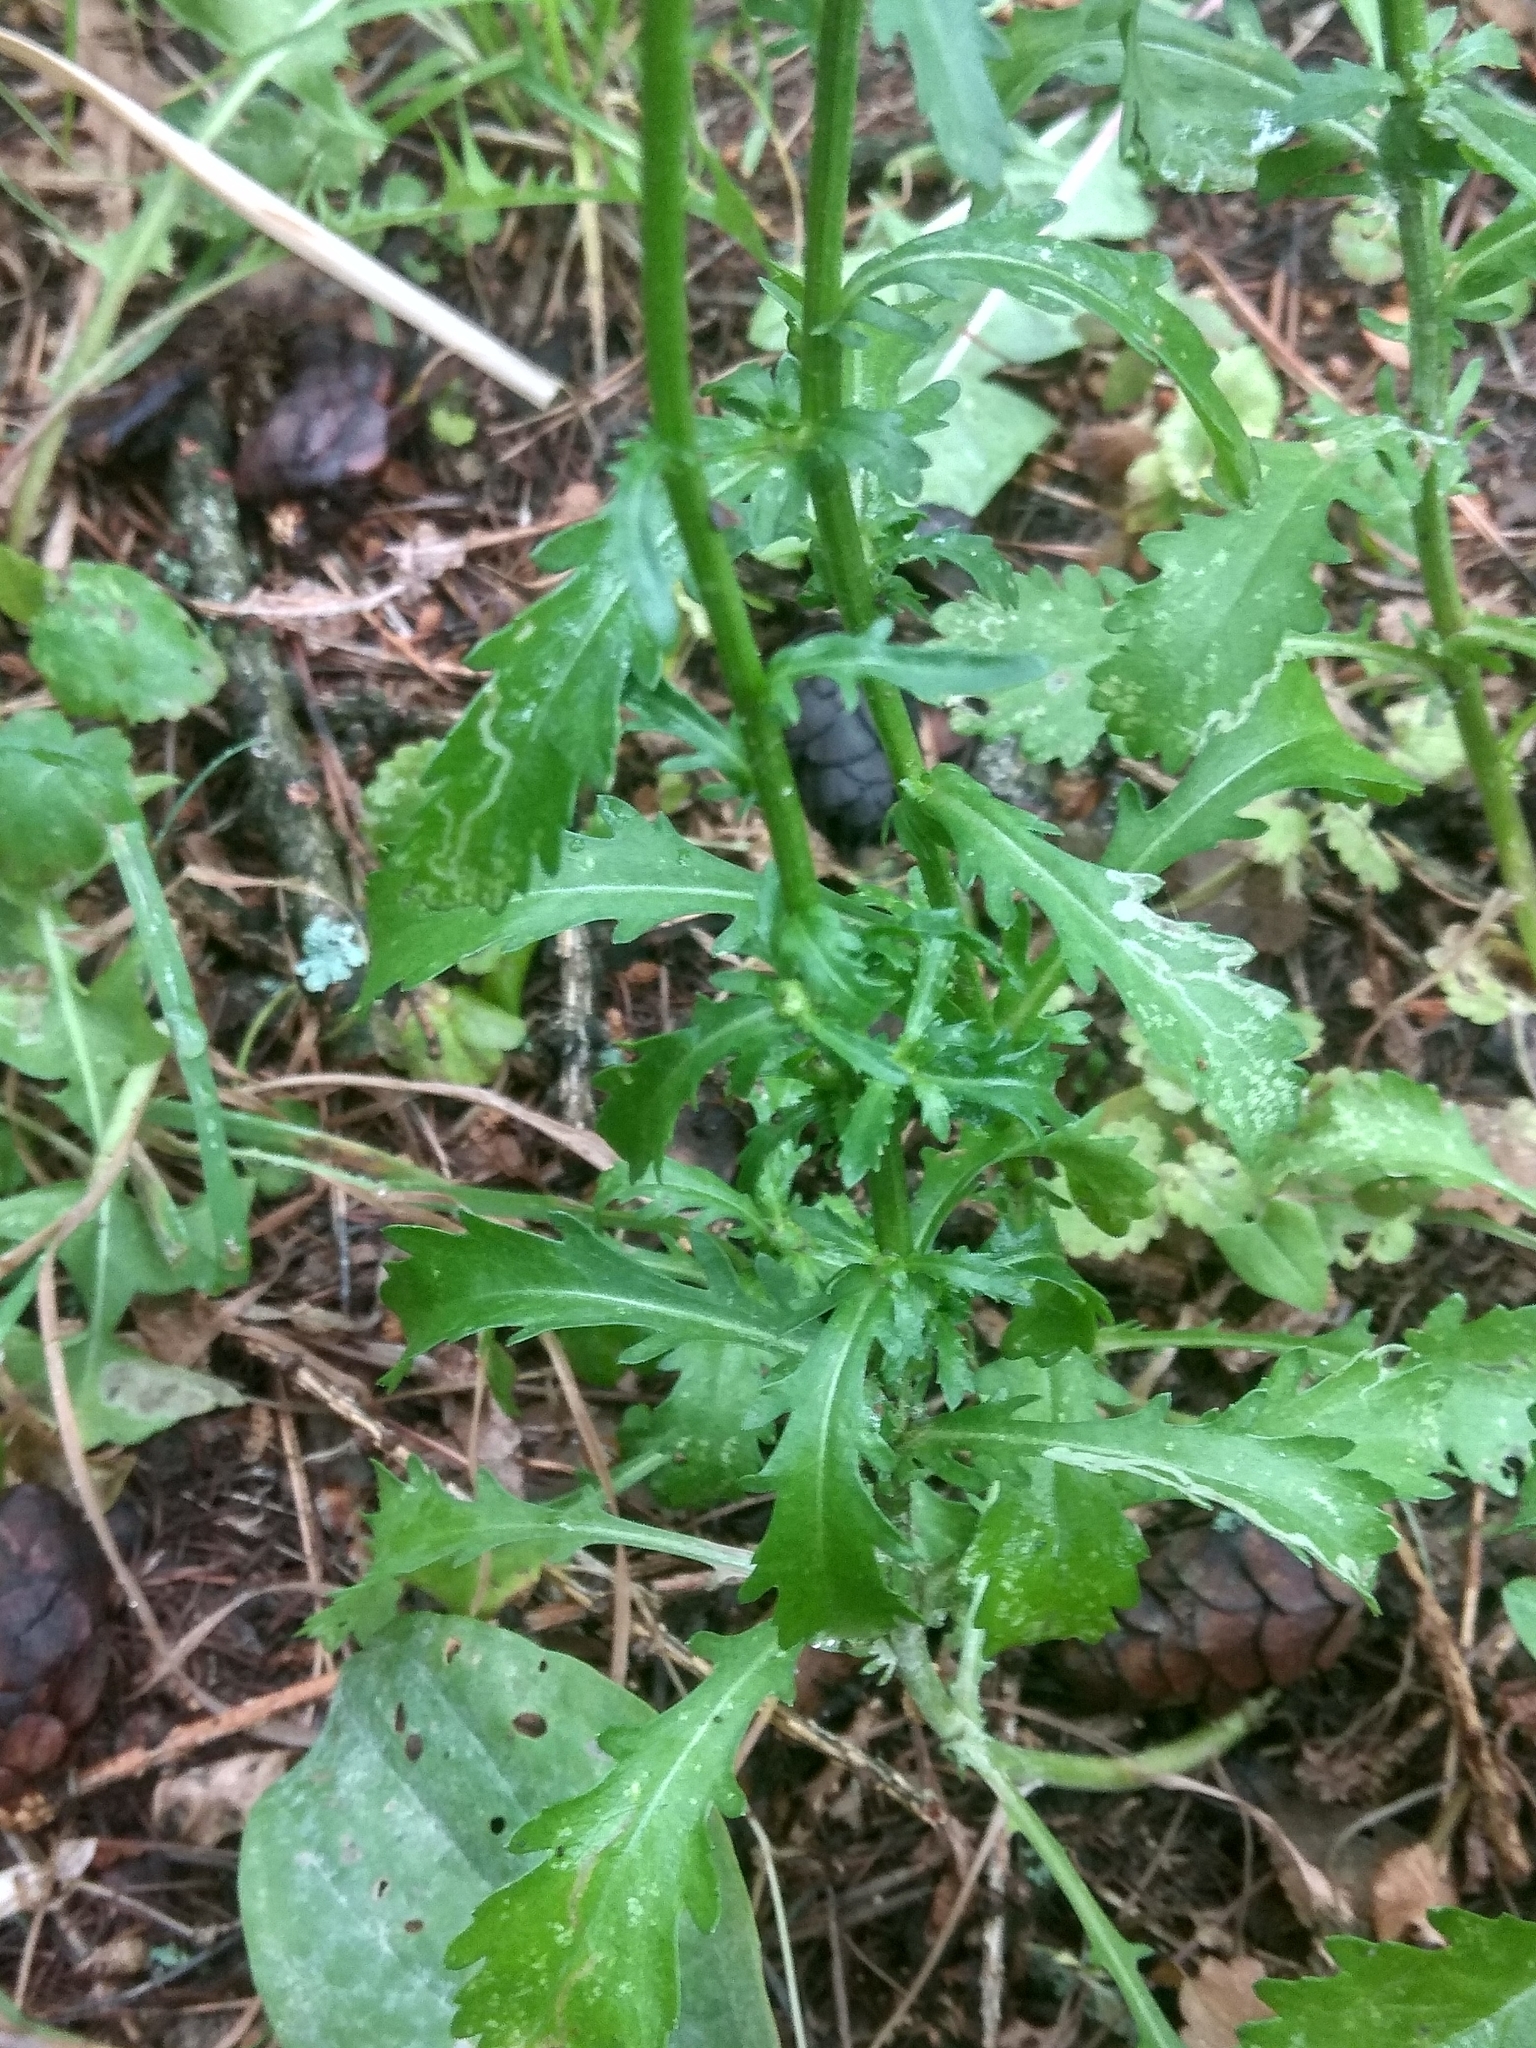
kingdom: Plantae
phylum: Tracheophyta
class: Magnoliopsida
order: Asterales
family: Asteraceae
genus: Leucanthemum
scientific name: Leucanthemum vulgare
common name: Oxeye daisy
